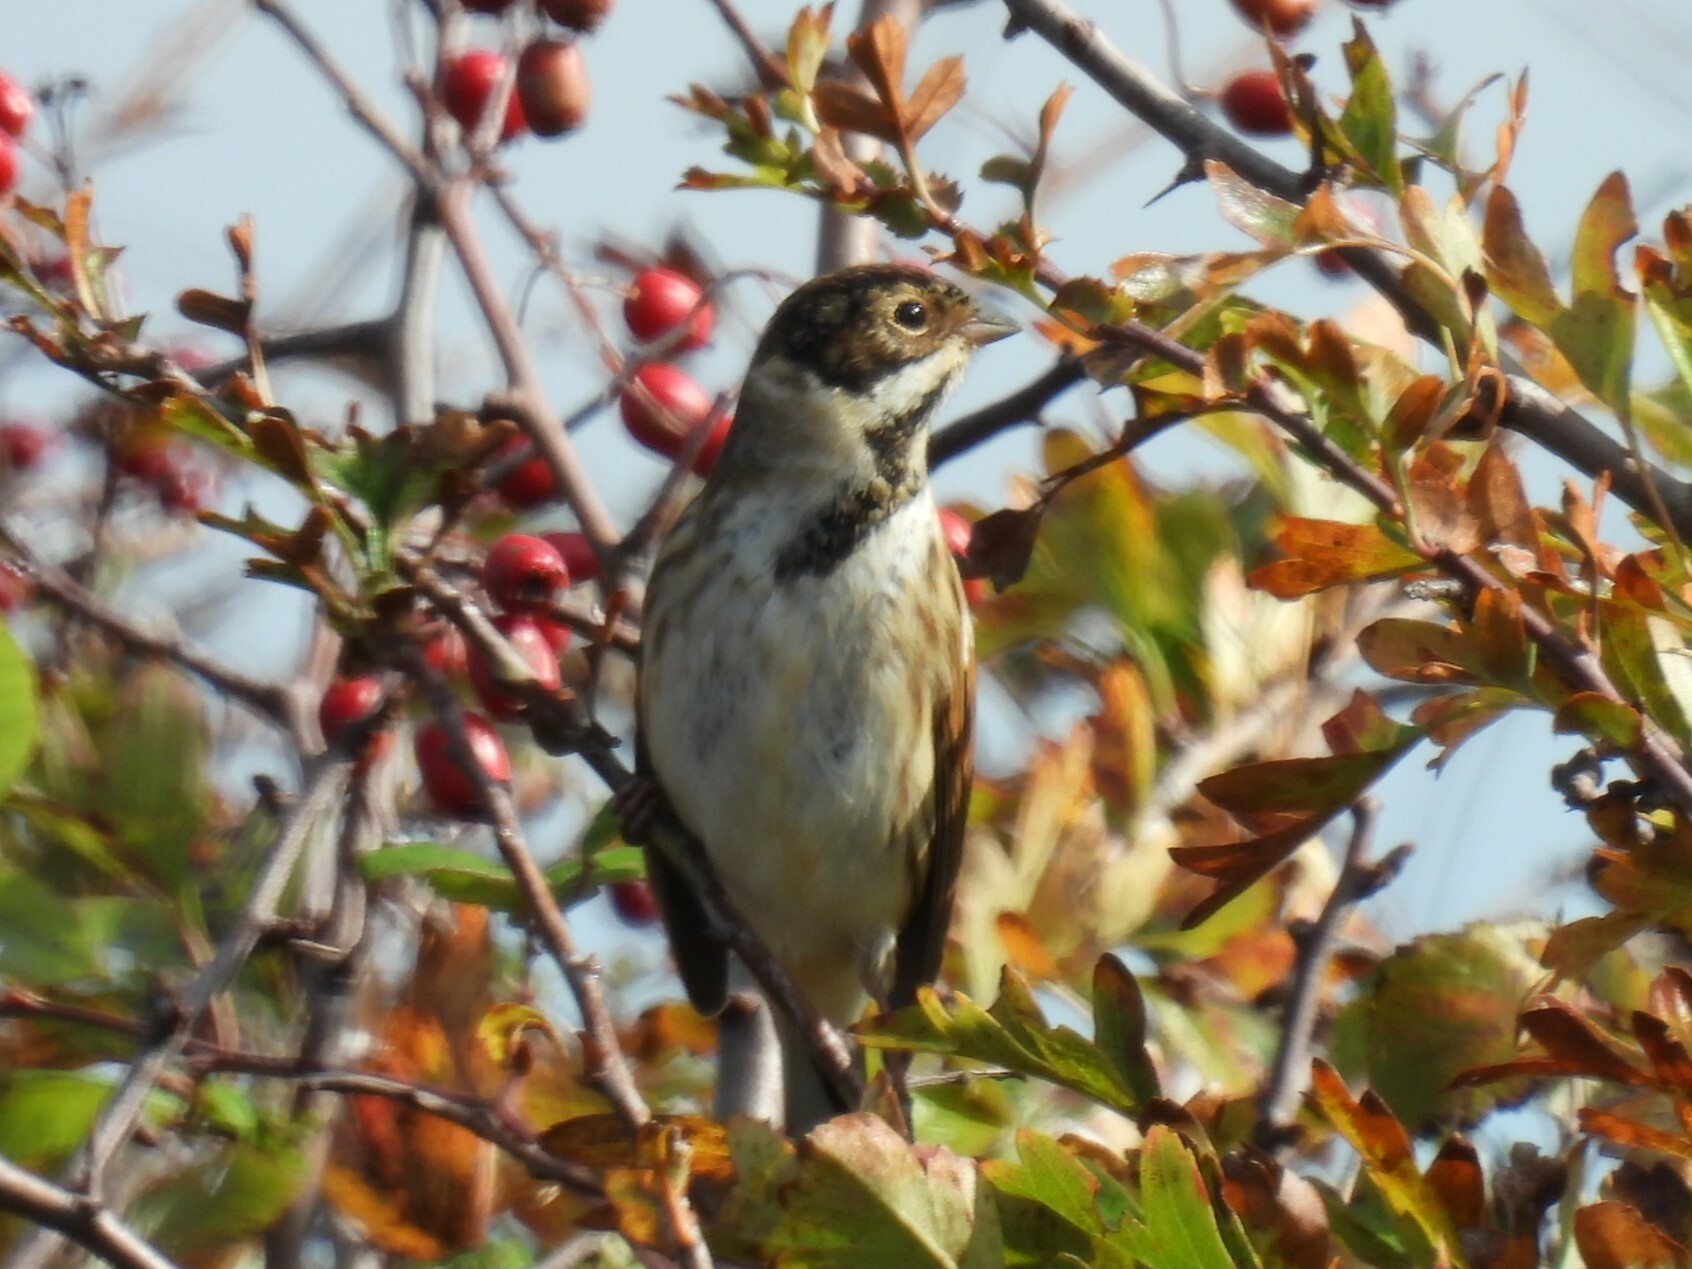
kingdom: Animalia
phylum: Chordata
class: Aves
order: Passeriformes
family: Emberizidae
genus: Emberiza
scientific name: Emberiza schoeniclus
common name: Reed bunting
